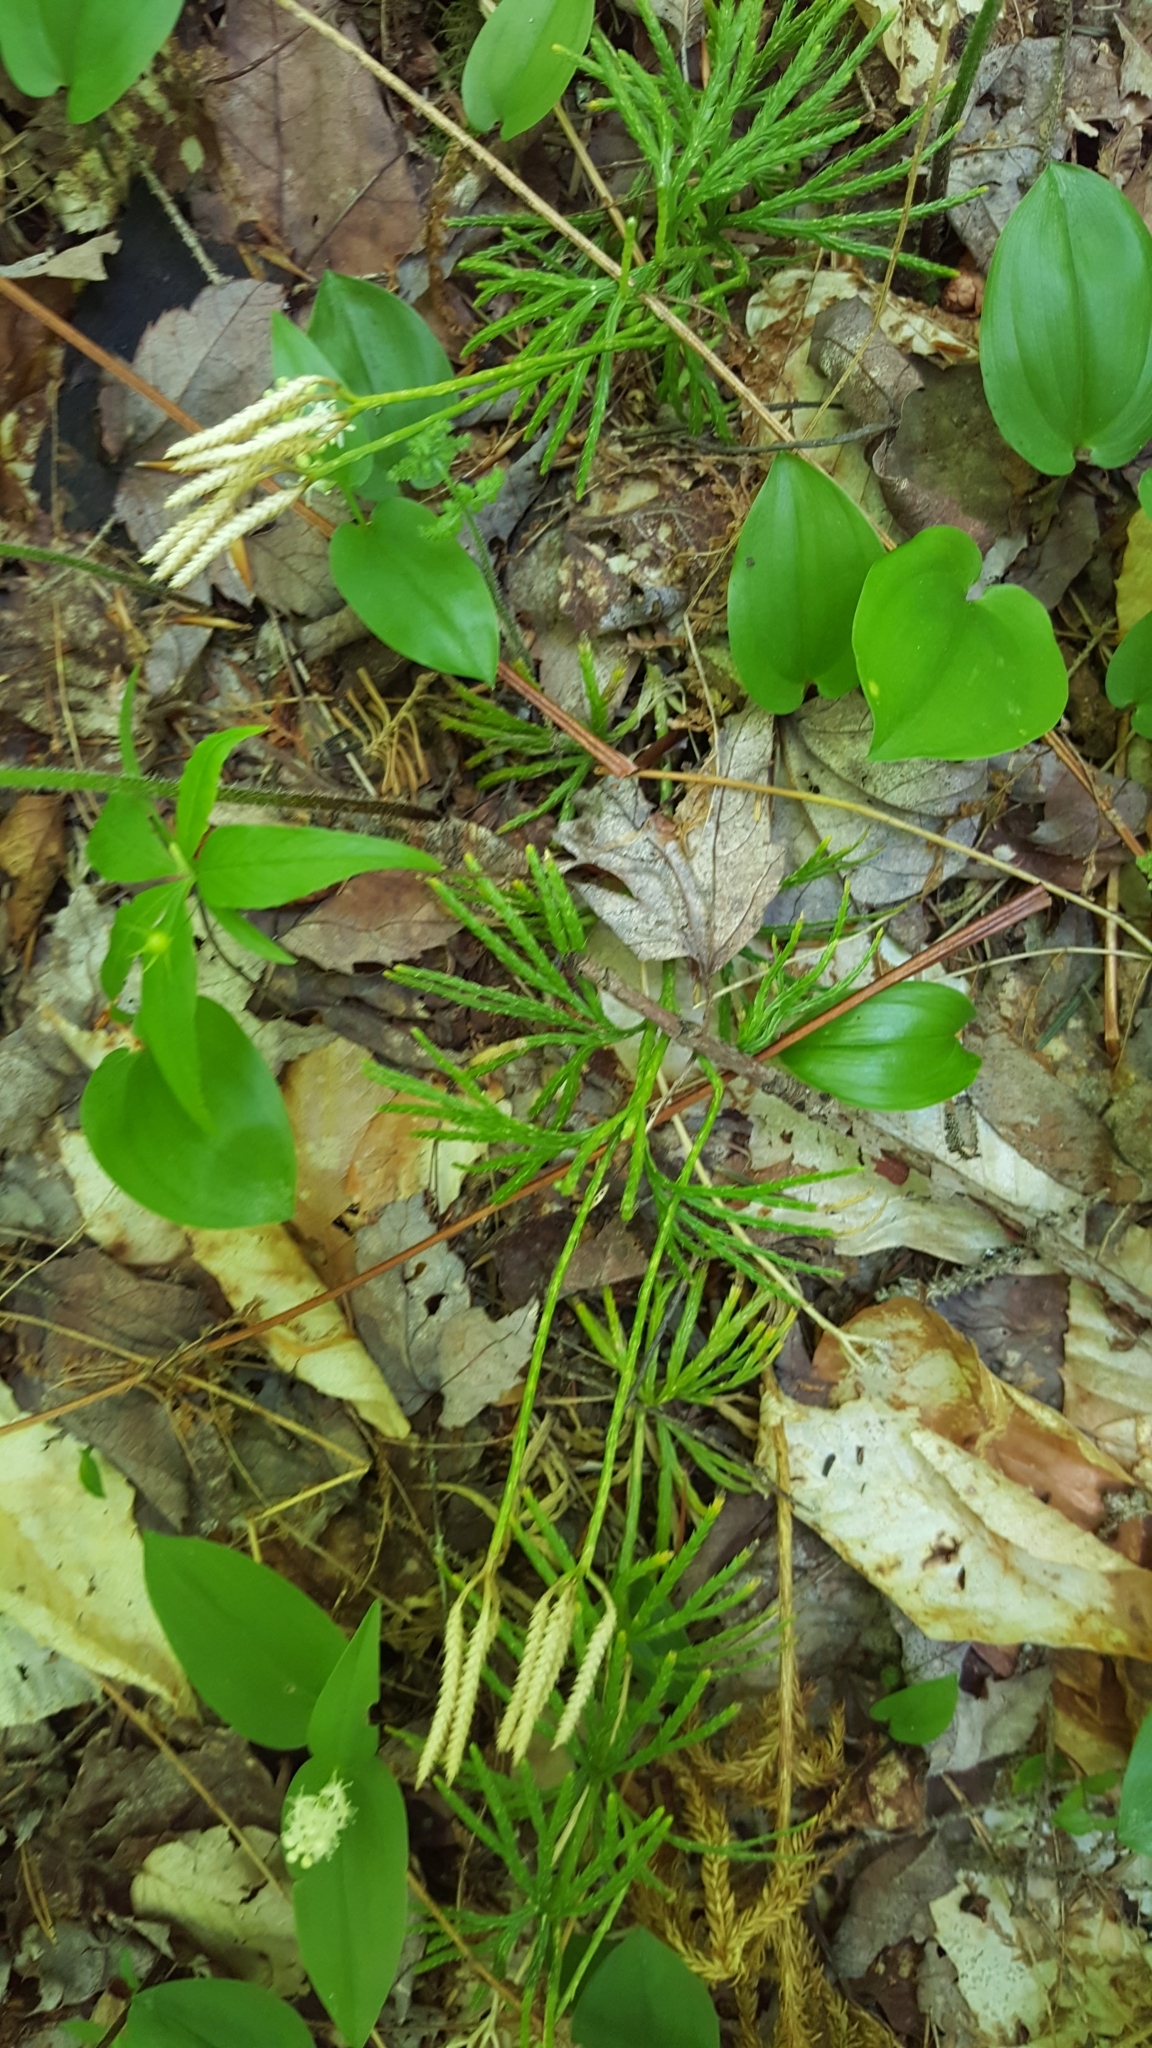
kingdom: Plantae
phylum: Tracheophyta
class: Lycopodiopsida
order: Lycopodiales
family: Lycopodiaceae
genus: Diphasiastrum
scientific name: Diphasiastrum digitatum
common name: Southern running-pine
